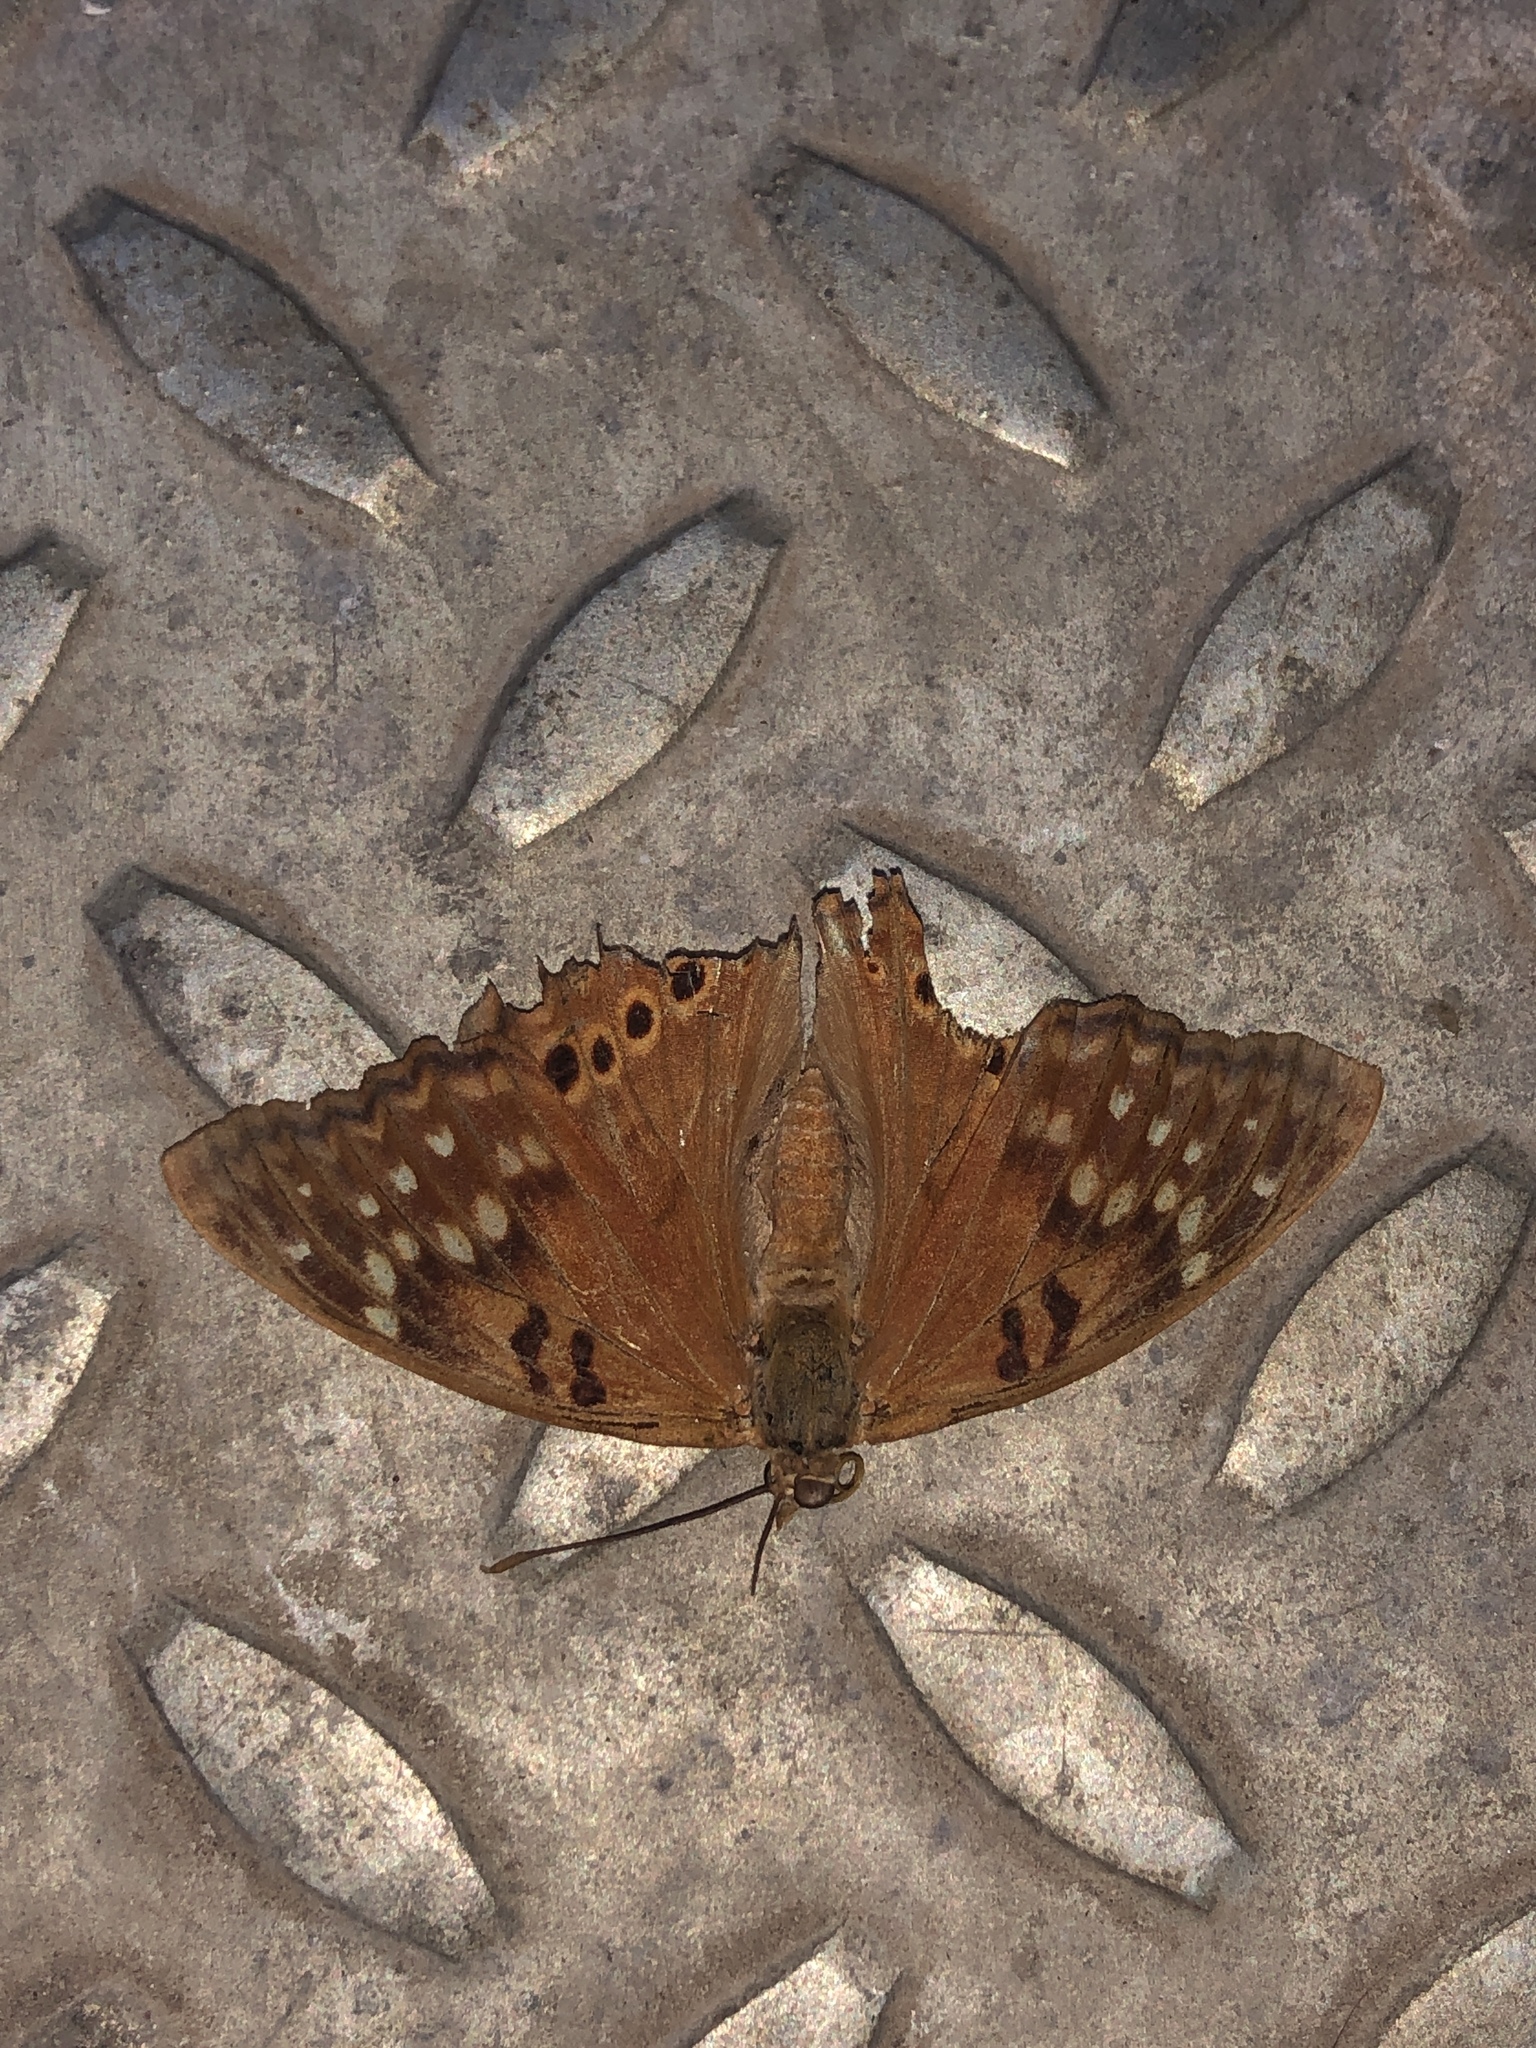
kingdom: Animalia
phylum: Arthropoda
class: Insecta
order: Lepidoptera
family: Nymphalidae
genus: Asterocampa
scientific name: Asterocampa clyton
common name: Tawny emperor
